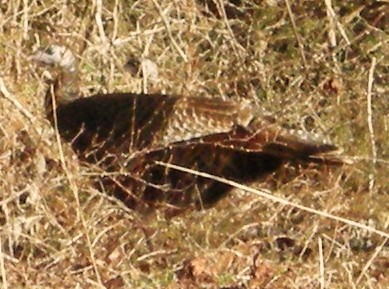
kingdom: Animalia
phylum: Chordata
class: Aves
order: Galliformes
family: Phasianidae
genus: Meleagris
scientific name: Meleagris gallopavo
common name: Wild turkey
